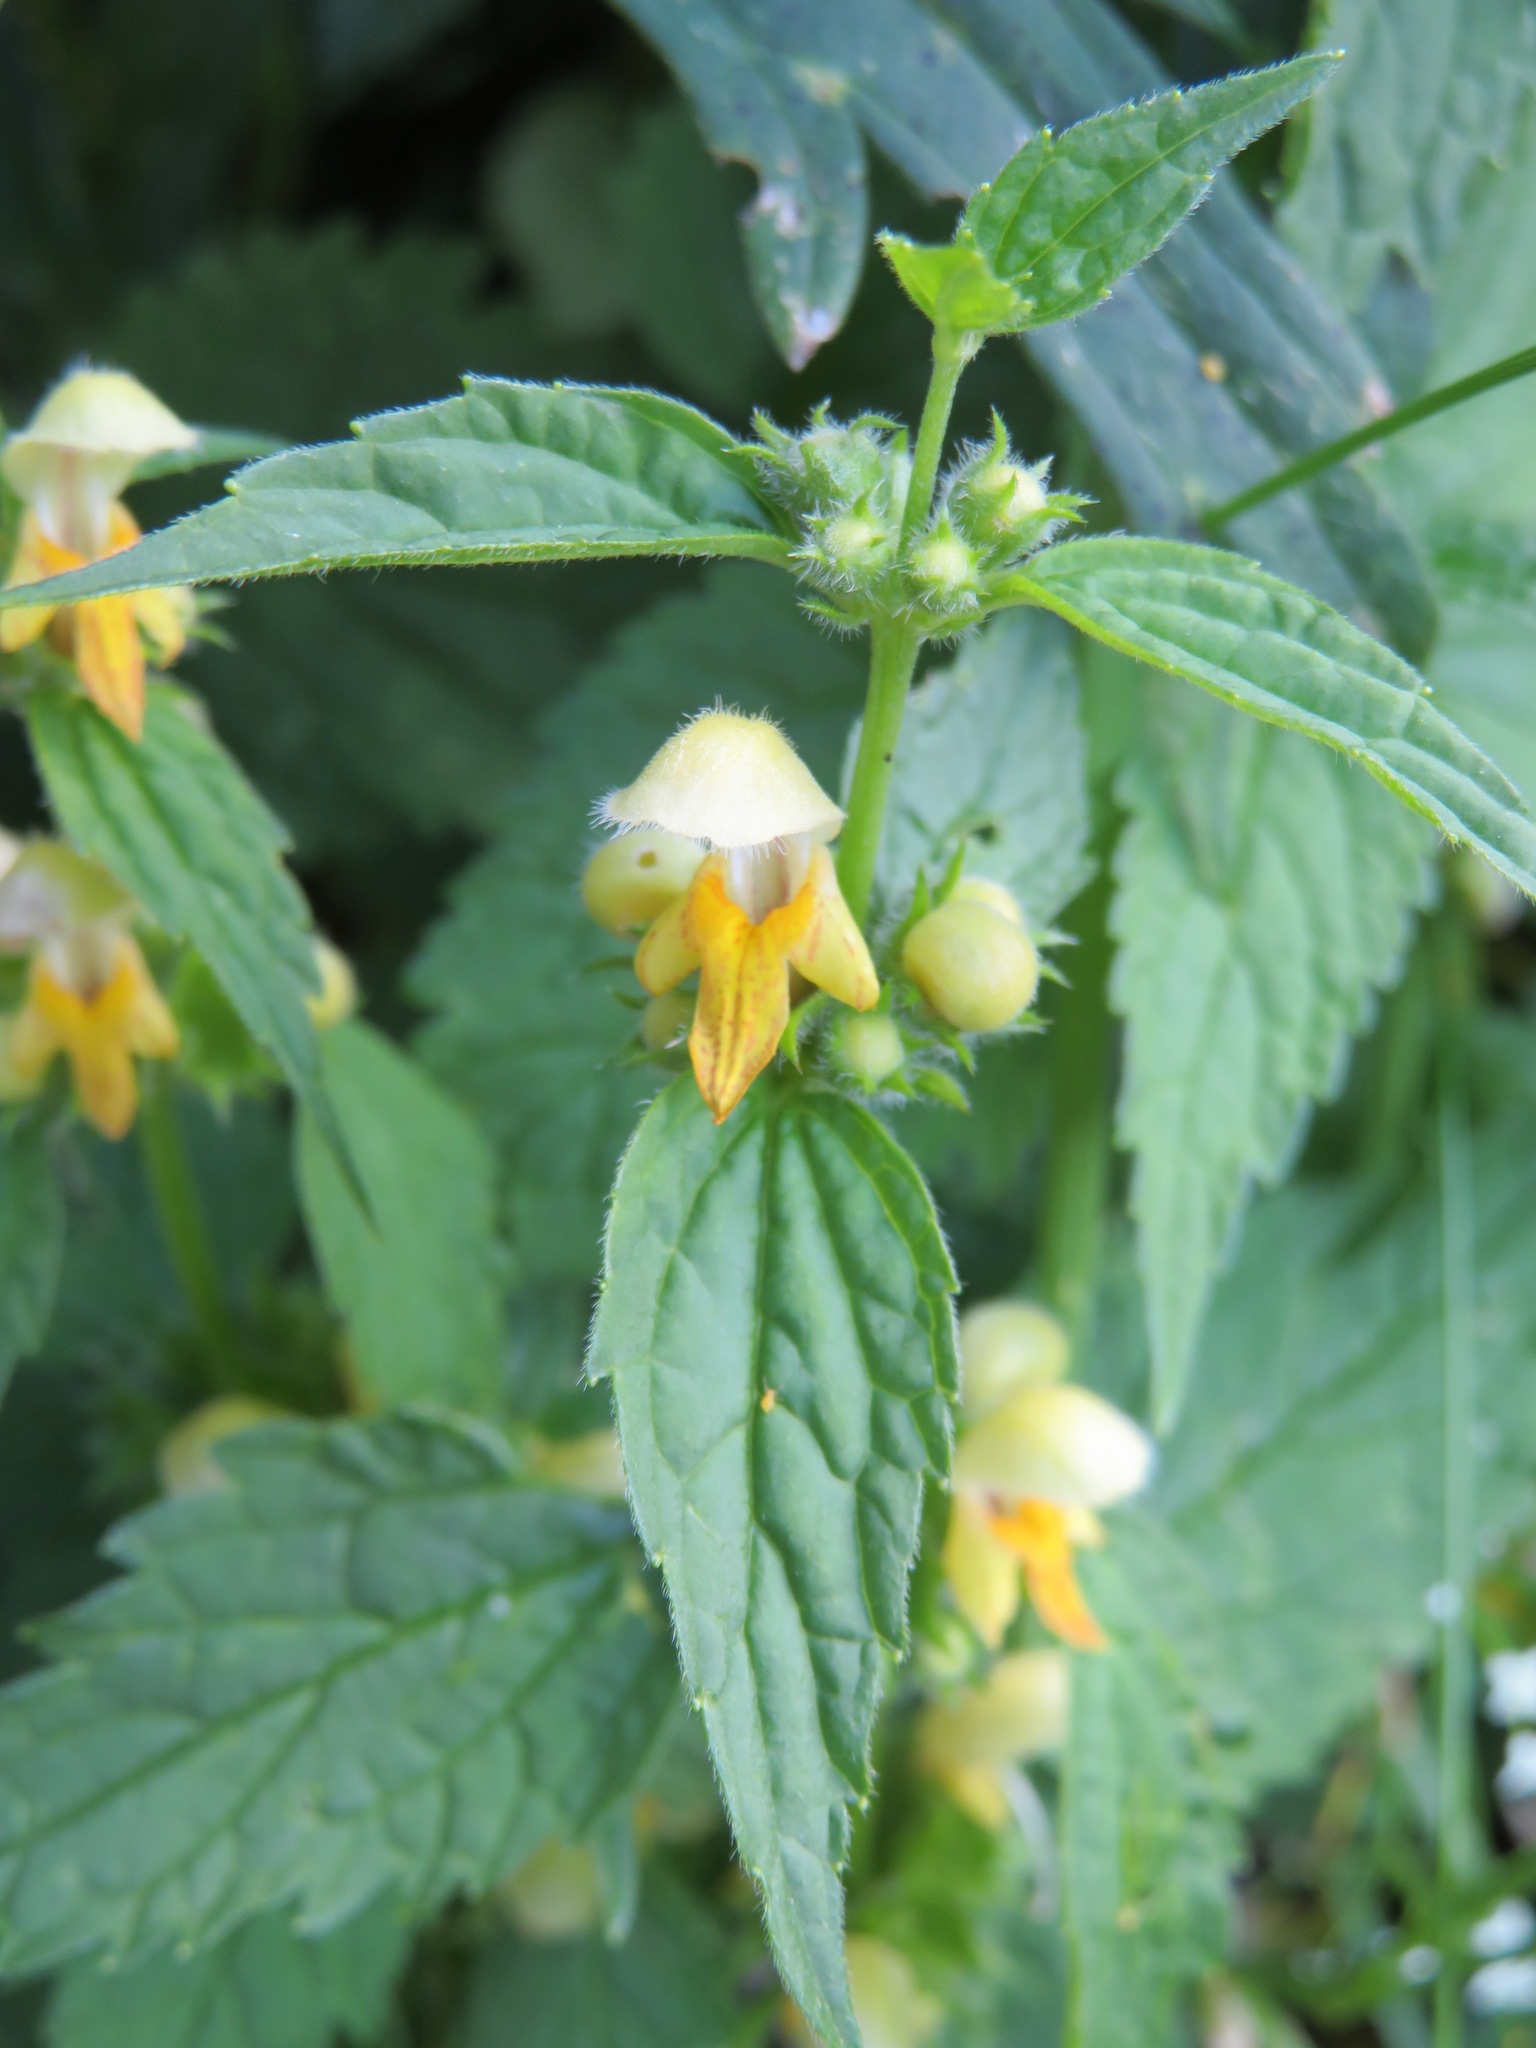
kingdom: Plantae
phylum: Tracheophyta
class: Magnoliopsida
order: Lamiales
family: Lamiaceae
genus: Lamium
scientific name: Lamium galeobdolon
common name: Yellow archangel
